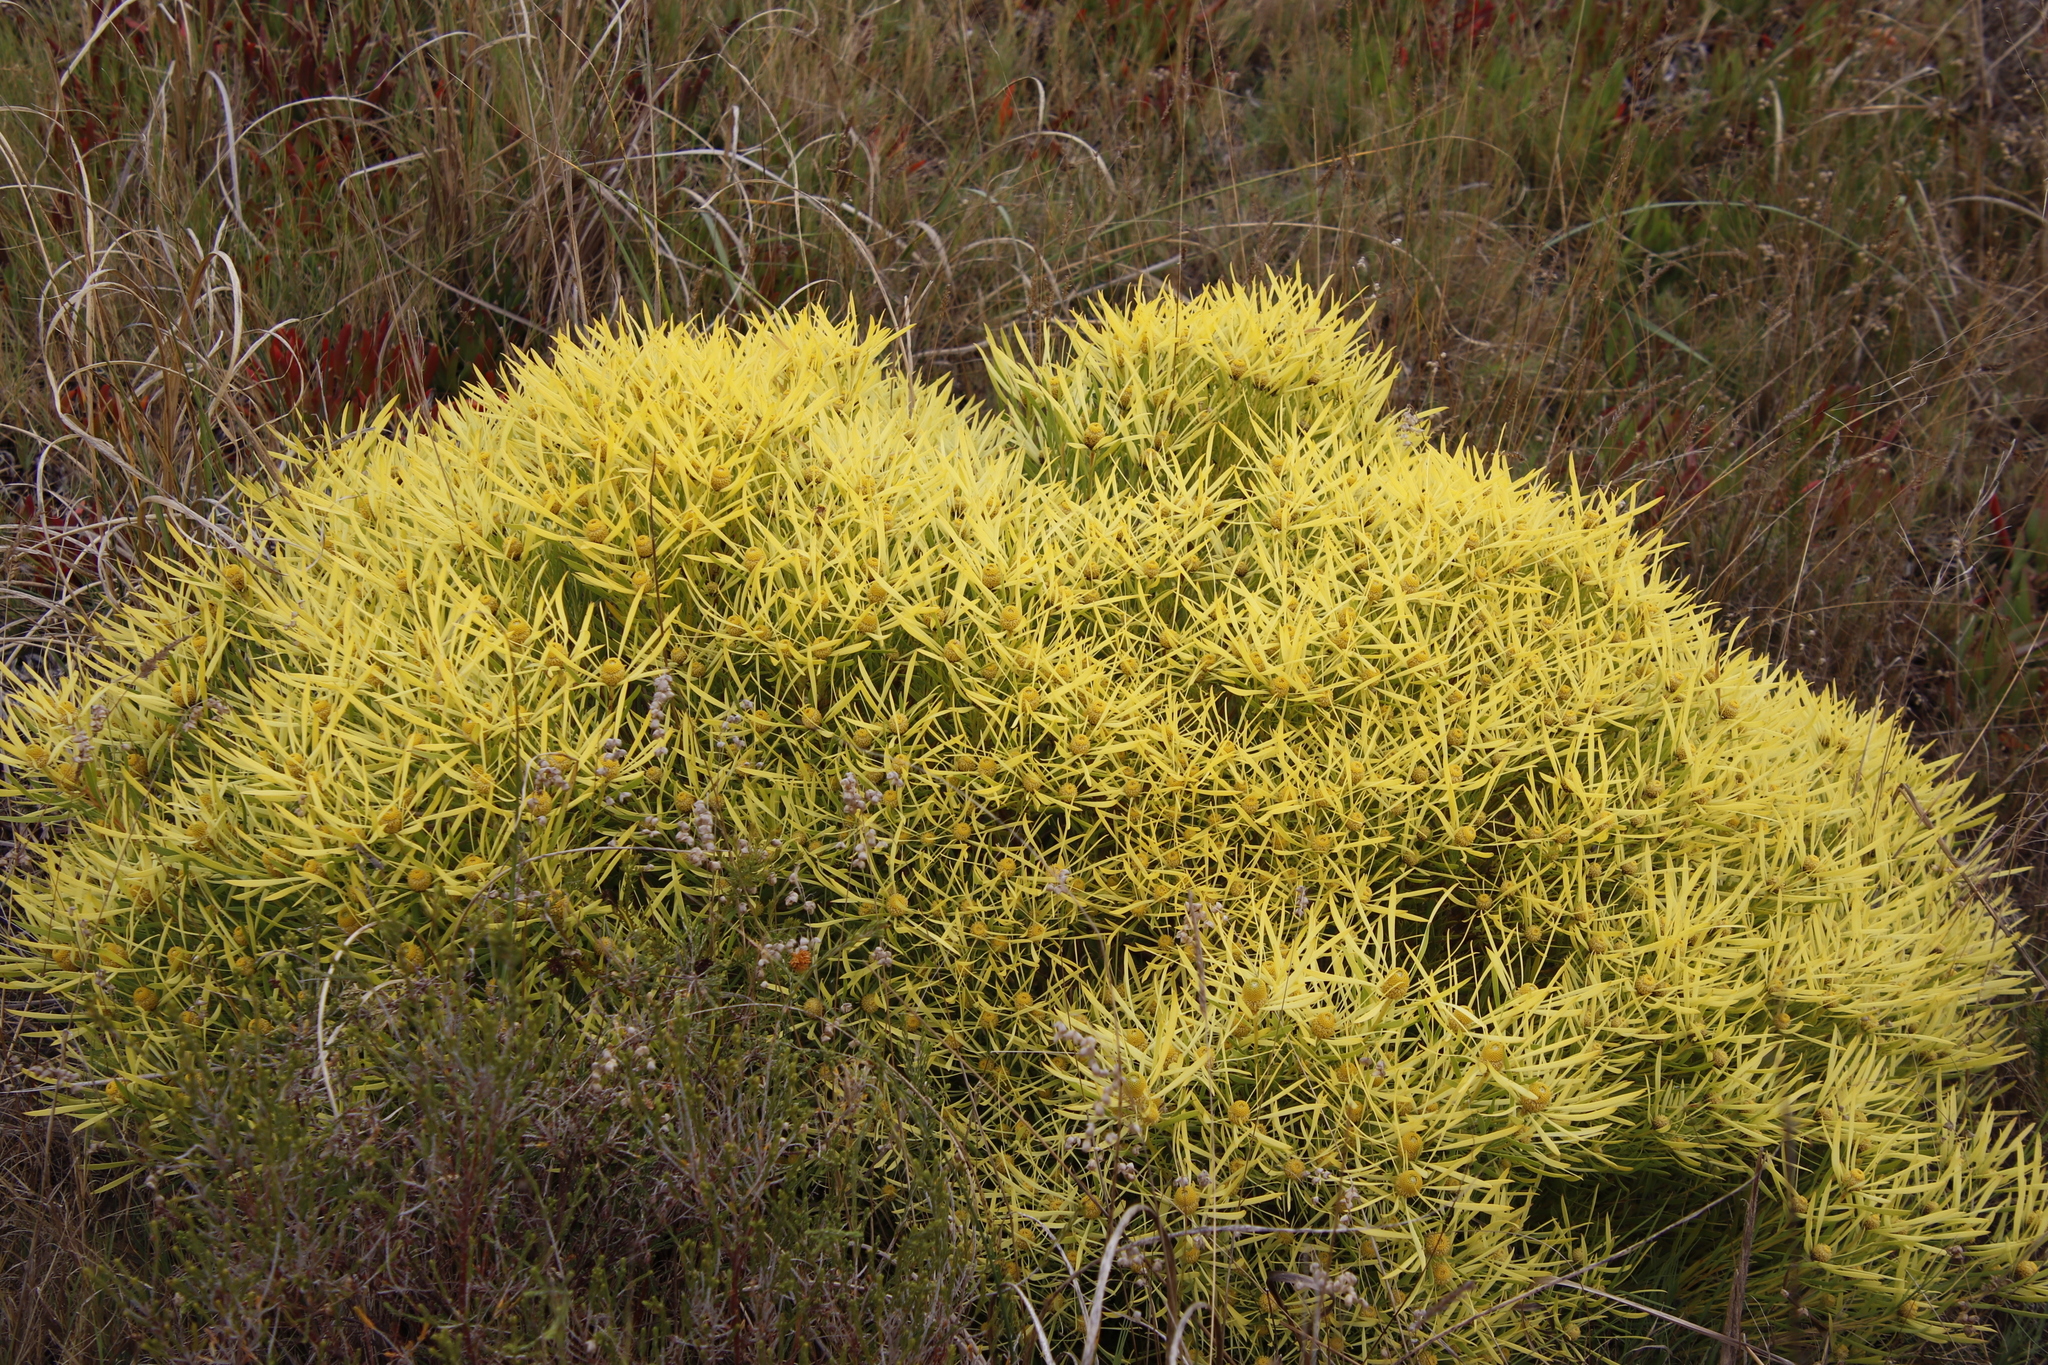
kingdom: Plantae
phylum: Tracheophyta
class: Magnoliopsida
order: Proteales
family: Proteaceae
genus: Leucadendron
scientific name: Leucadendron salignum
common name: Common sunshine conebush
